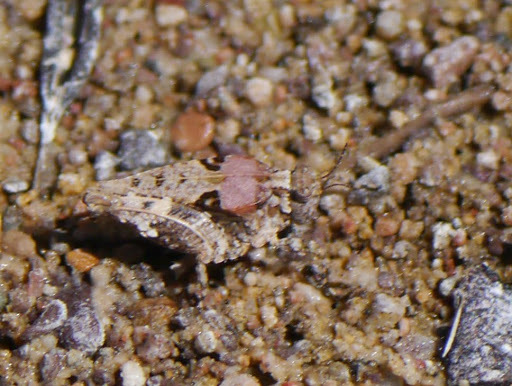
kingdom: Animalia
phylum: Arthropoda
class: Insecta
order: Orthoptera
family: Tetrigidae
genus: Paratettix
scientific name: Paratettix mexicanus
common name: Mexican pygmy grasshopper
